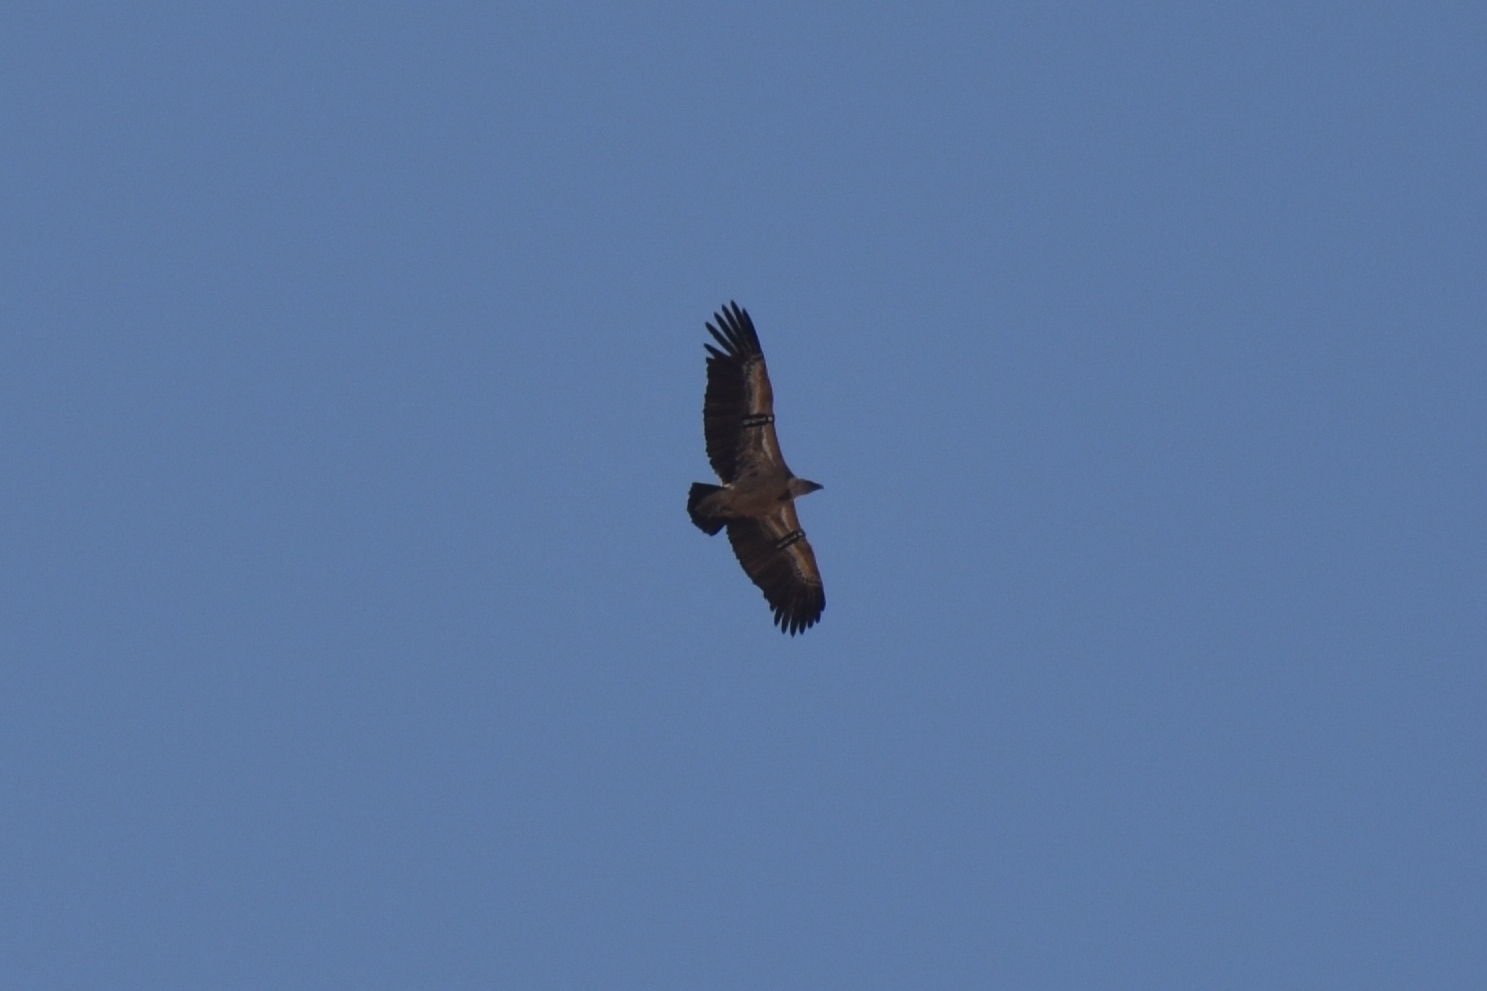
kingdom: Animalia
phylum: Chordata
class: Aves
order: Accipitriformes
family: Accipitridae
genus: Gyps
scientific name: Gyps fulvus
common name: Griffon vulture
